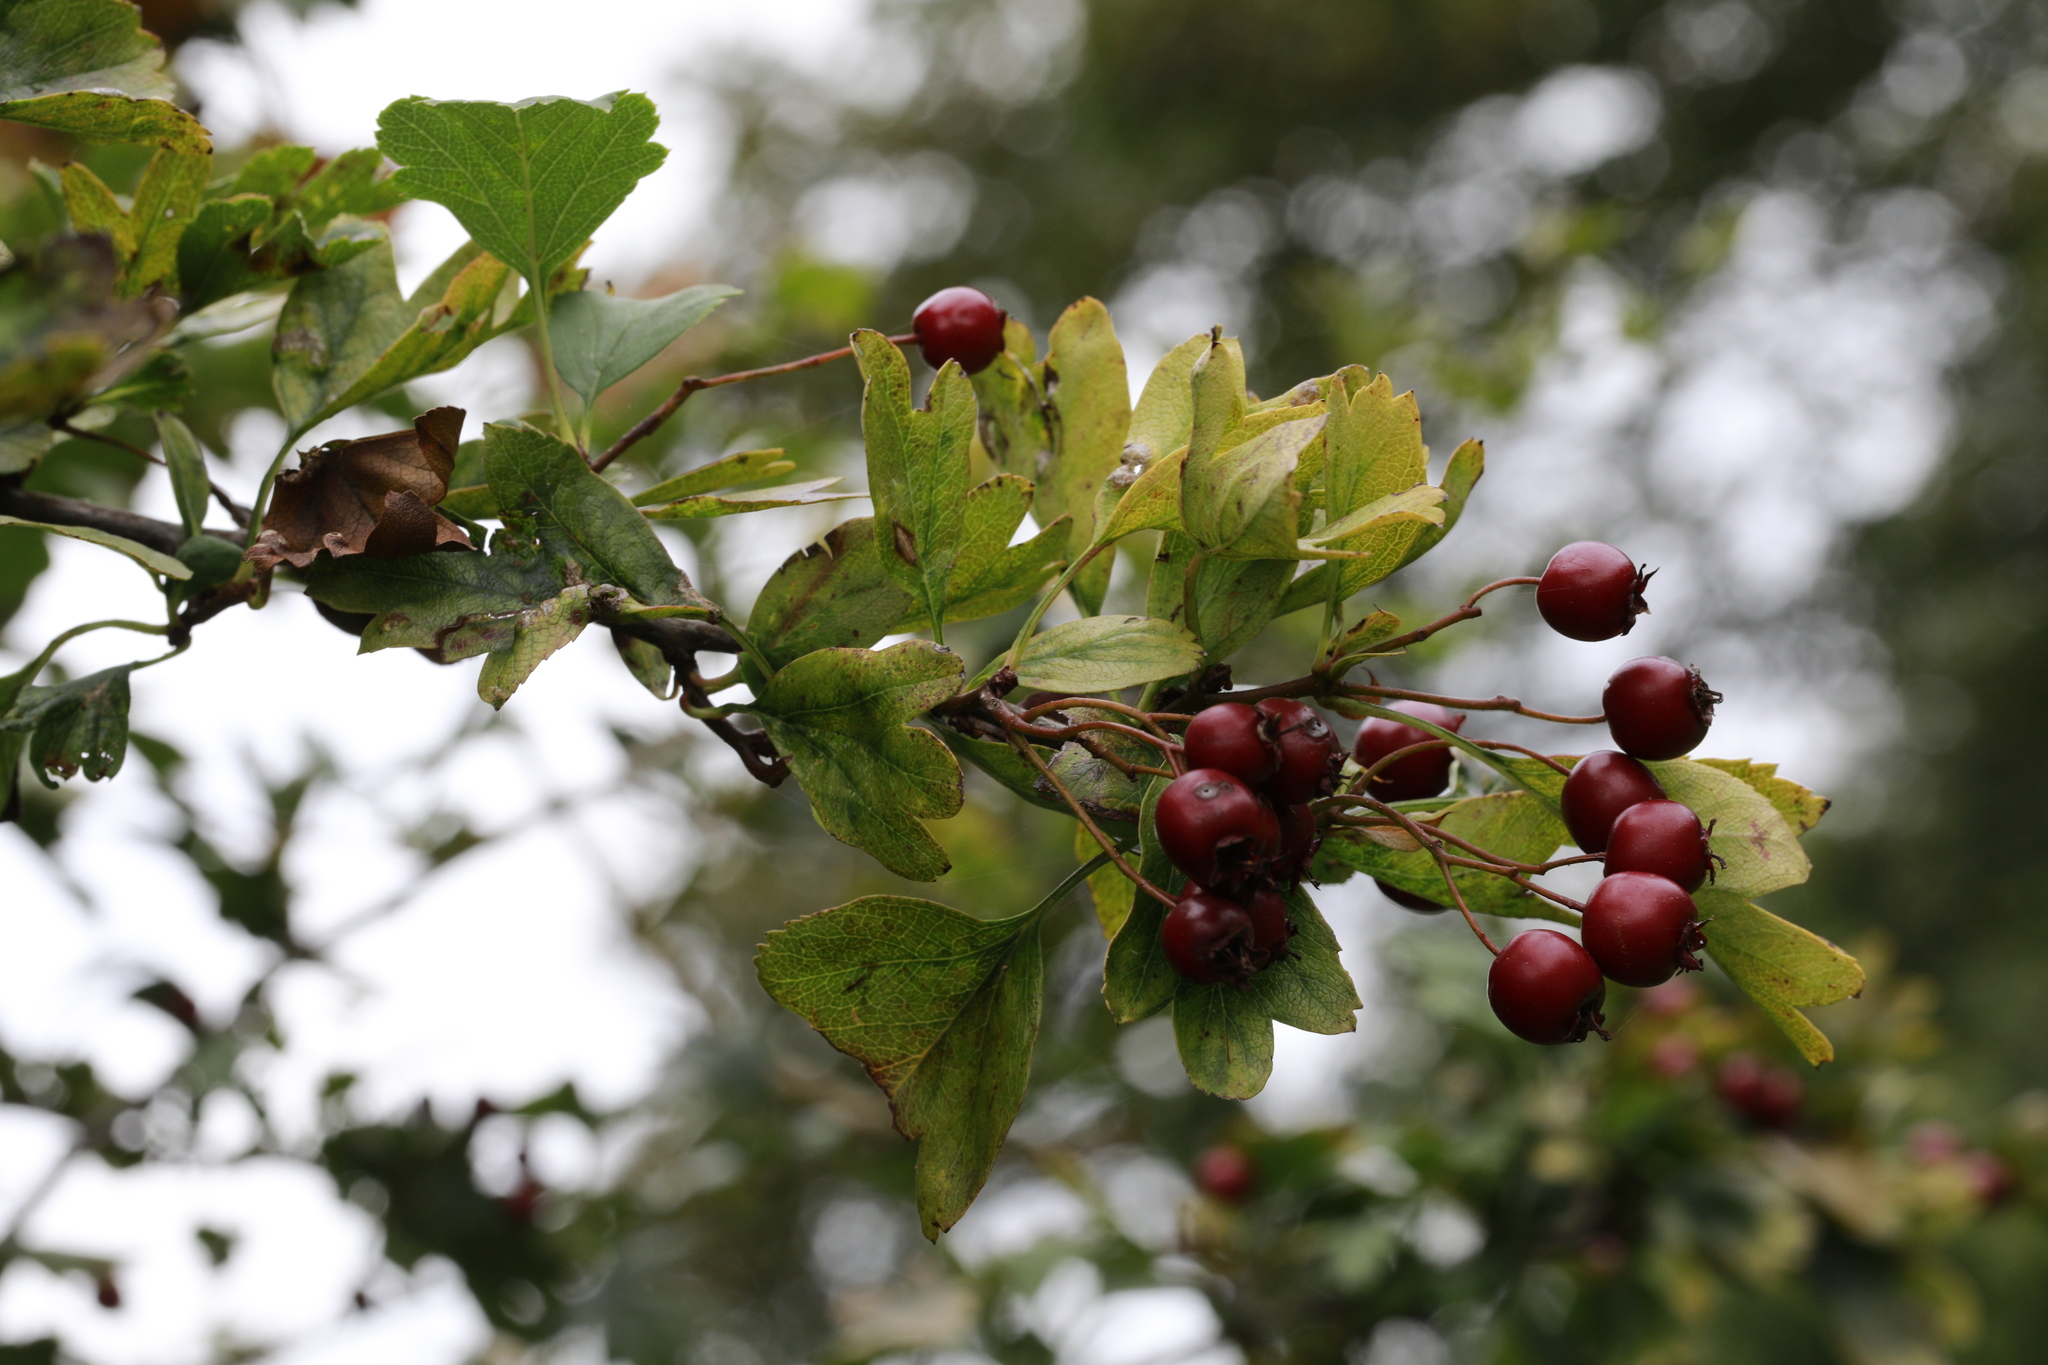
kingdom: Plantae
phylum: Tracheophyta
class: Magnoliopsida
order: Rosales
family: Rosaceae
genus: Crataegus
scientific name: Crataegus monogyna
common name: Hawthorn
